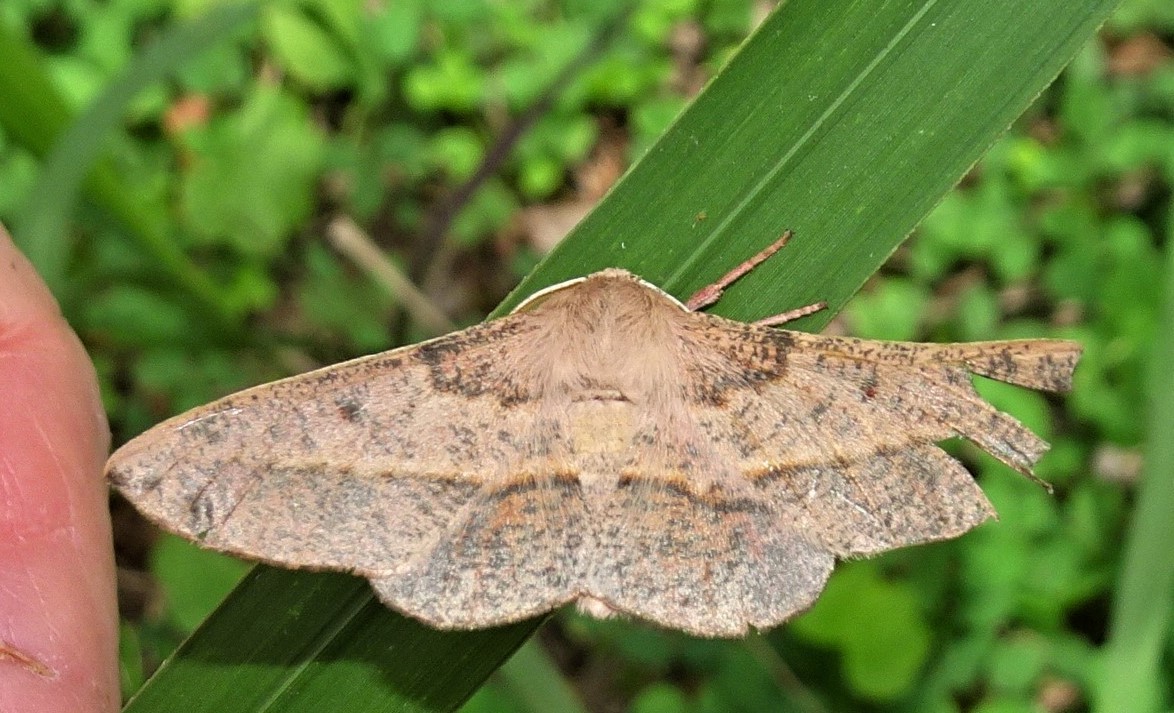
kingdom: Animalia
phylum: Arthropoda
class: Insecta
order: Lepidoptera
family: Geometridae
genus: Antictenia
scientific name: Antictenia punctunculus
